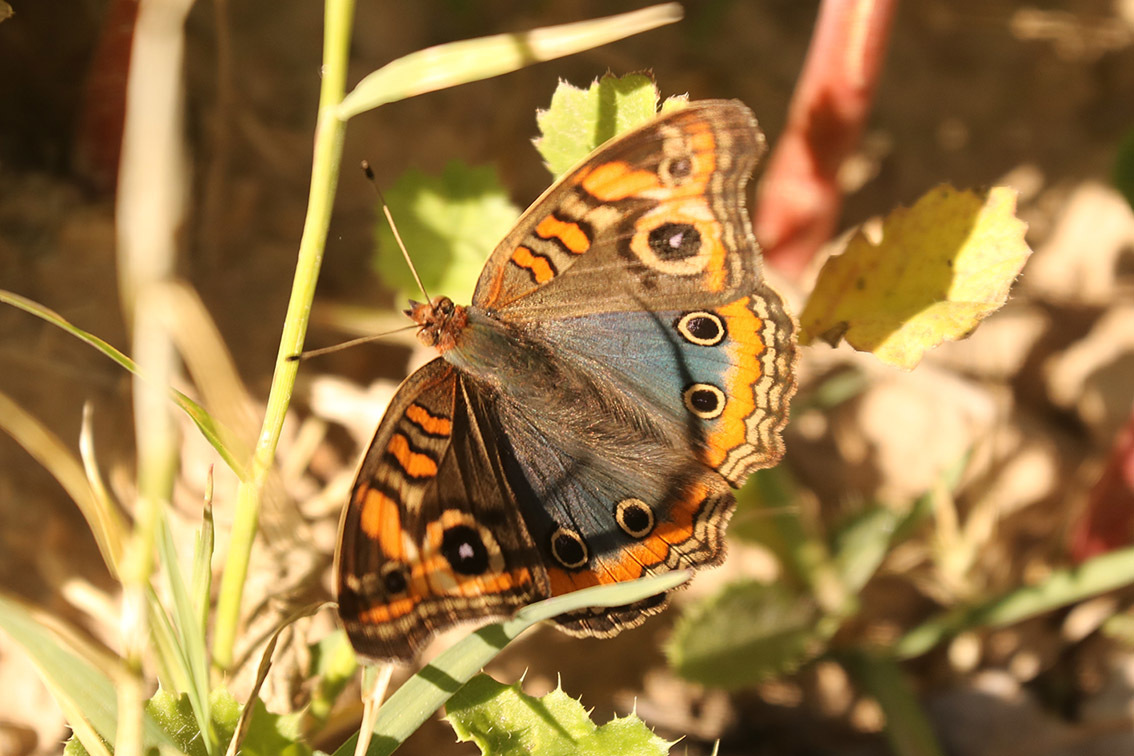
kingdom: Animalia
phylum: Arthropoda
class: Insecta
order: Lepidoptera
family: Nymphalidae
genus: Junonia
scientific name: Junonia lavinia
